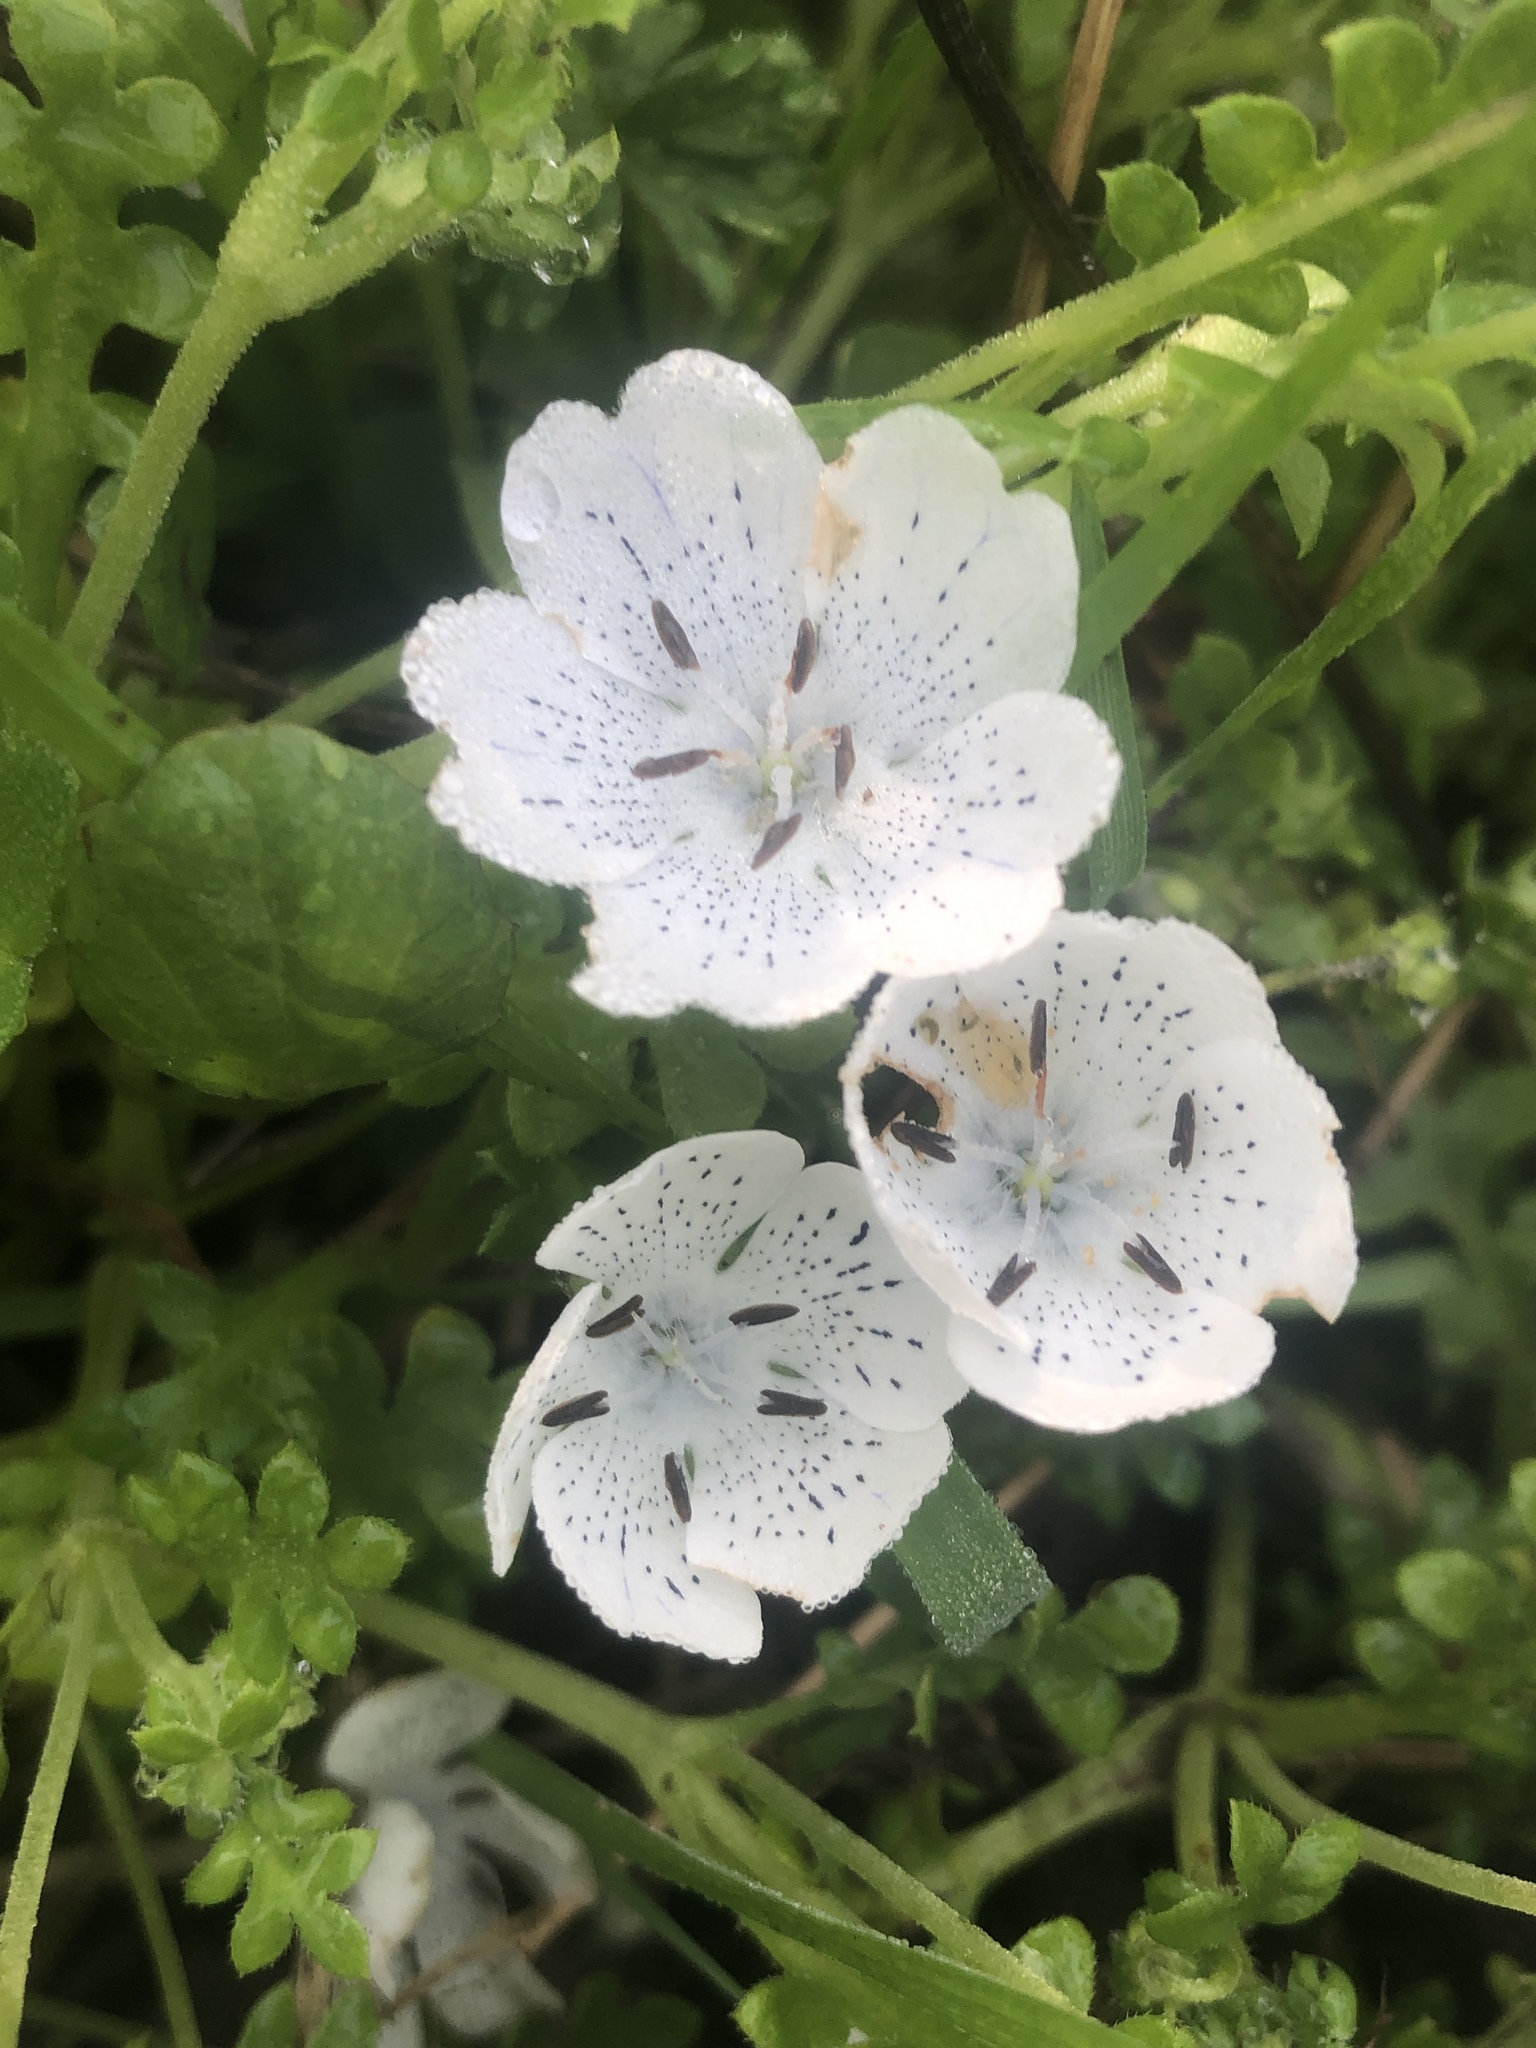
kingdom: Plantae
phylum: Tracheophyta
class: Magnoliopsida
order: Boraginales
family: Hydrophyllaceae
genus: Nemophila
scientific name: Nemophila menziesii
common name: Baby's-blue-eyes
